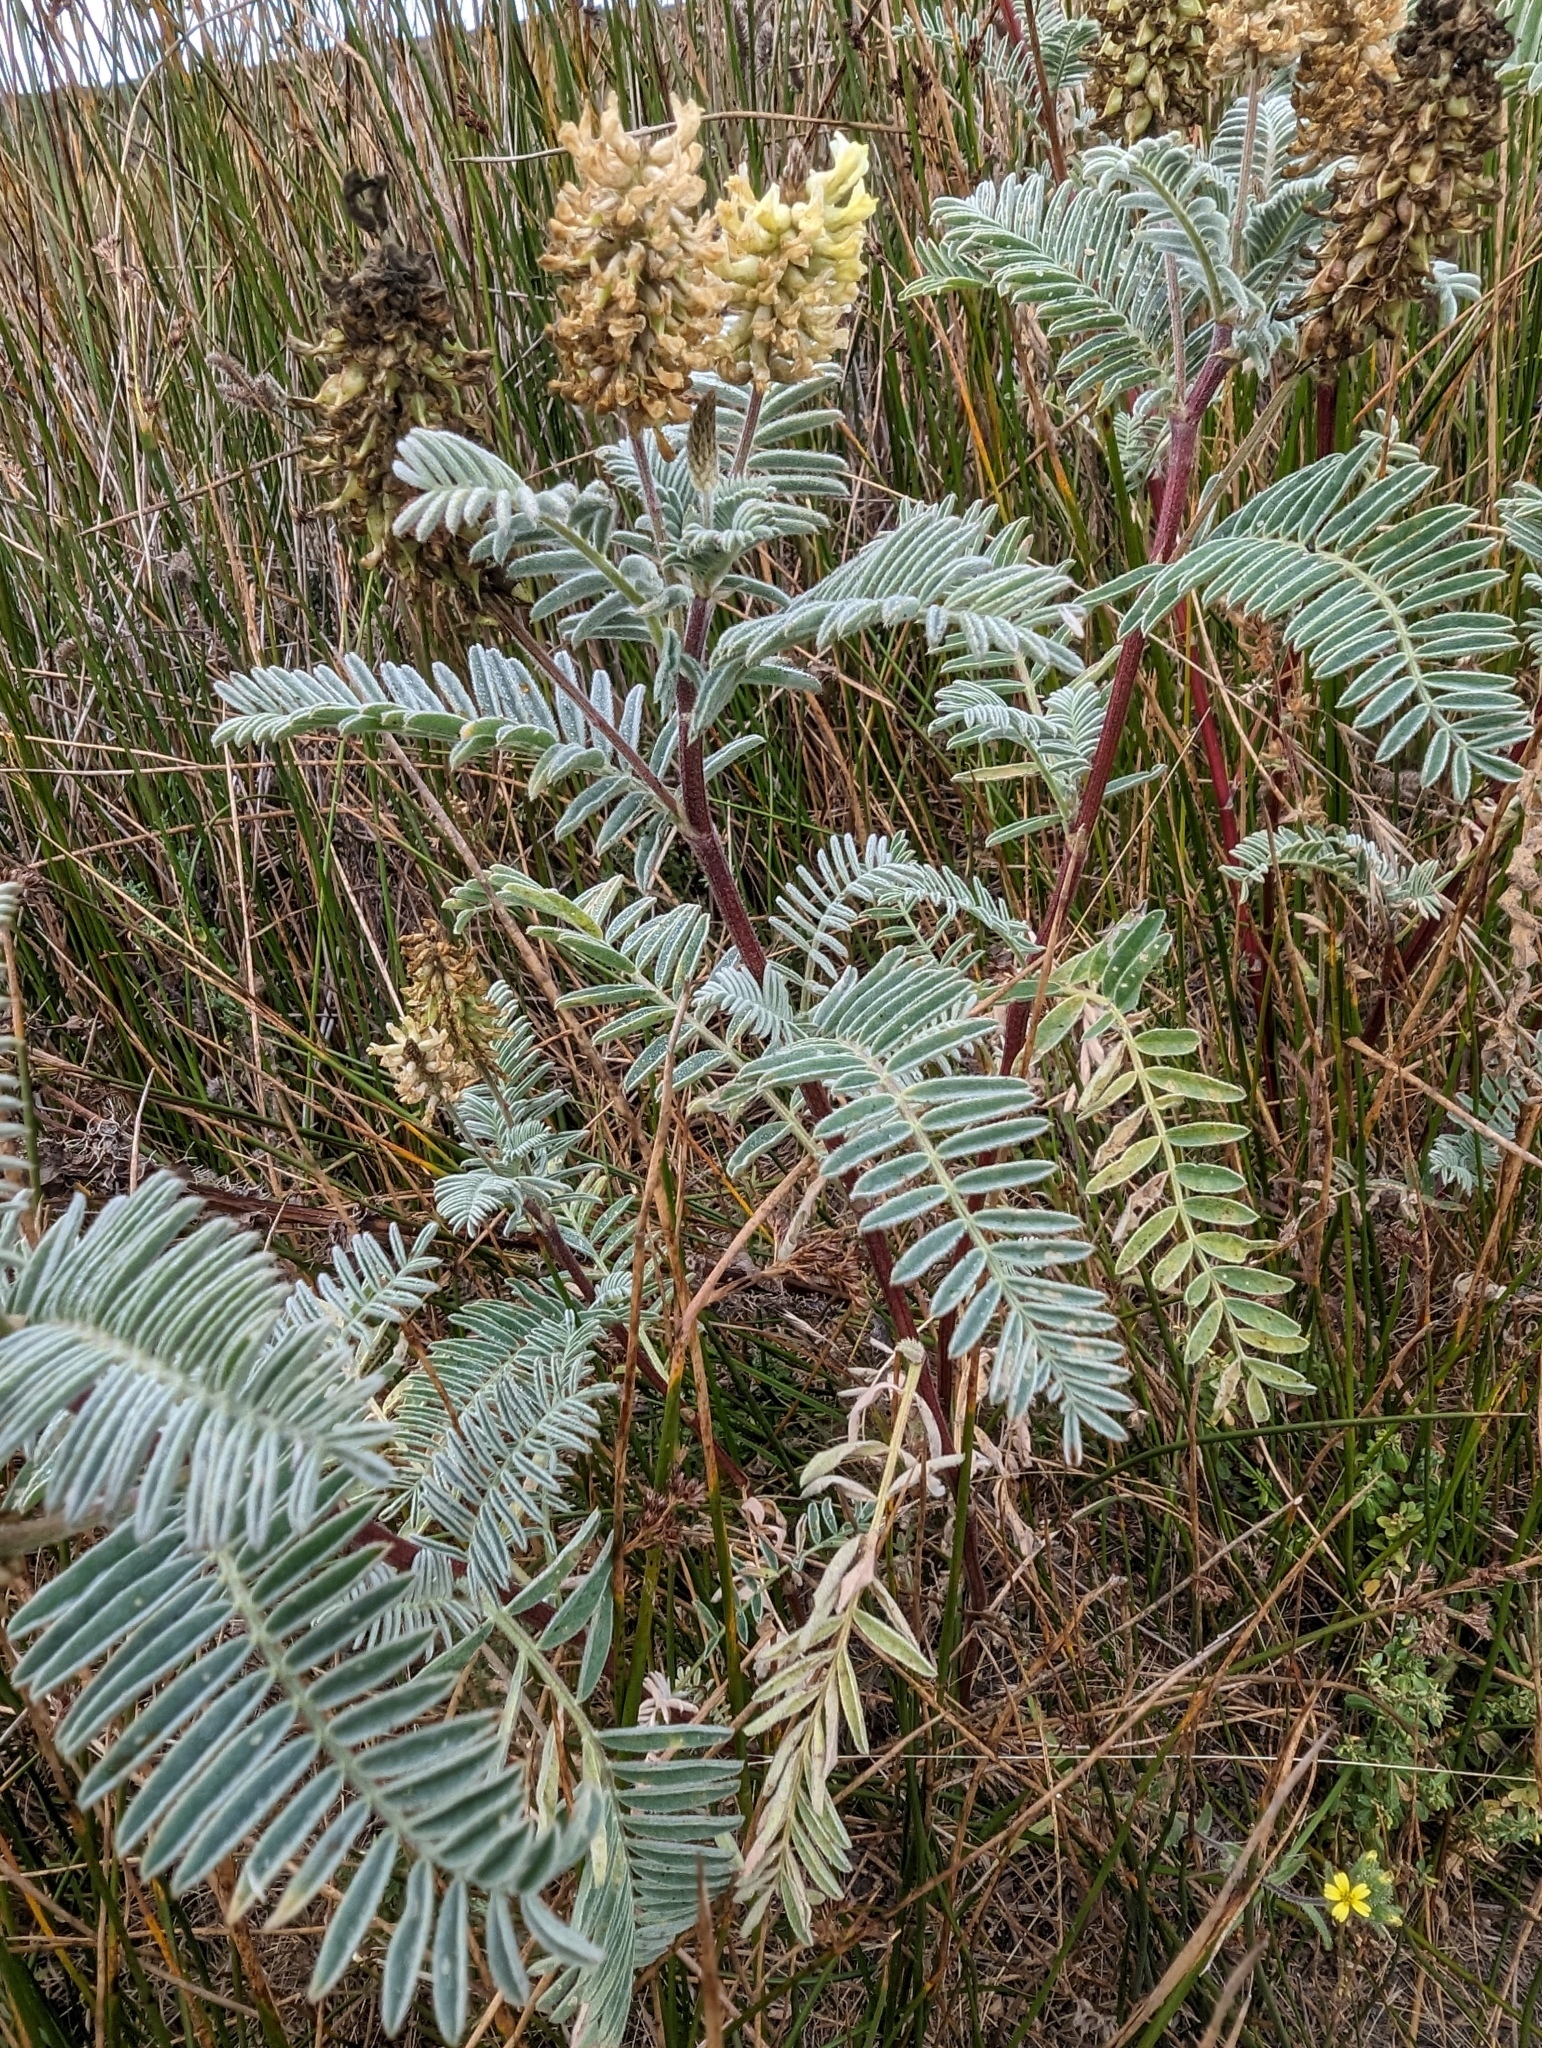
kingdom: Plantae
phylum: Tracheophyta
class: Magnoliopsida
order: Fabales
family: Fabaceae
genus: Astragalus
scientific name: Astragalus pycnostachyus
